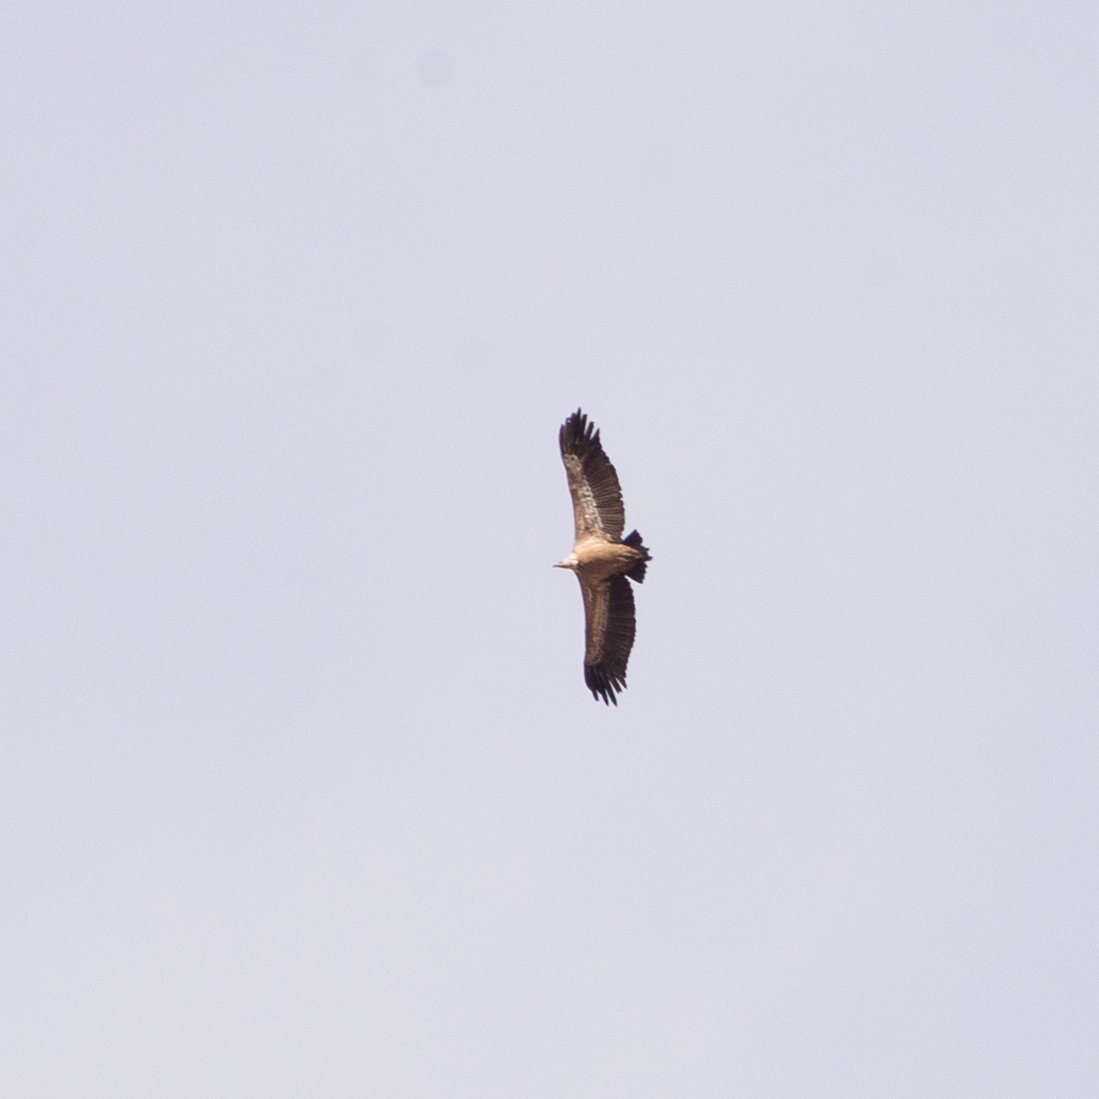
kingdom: Animalia
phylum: Chordata
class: Aves
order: Accipitriformes
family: Accipitridae
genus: Gyps
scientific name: Gyps fulvus
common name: Griffon vulture
